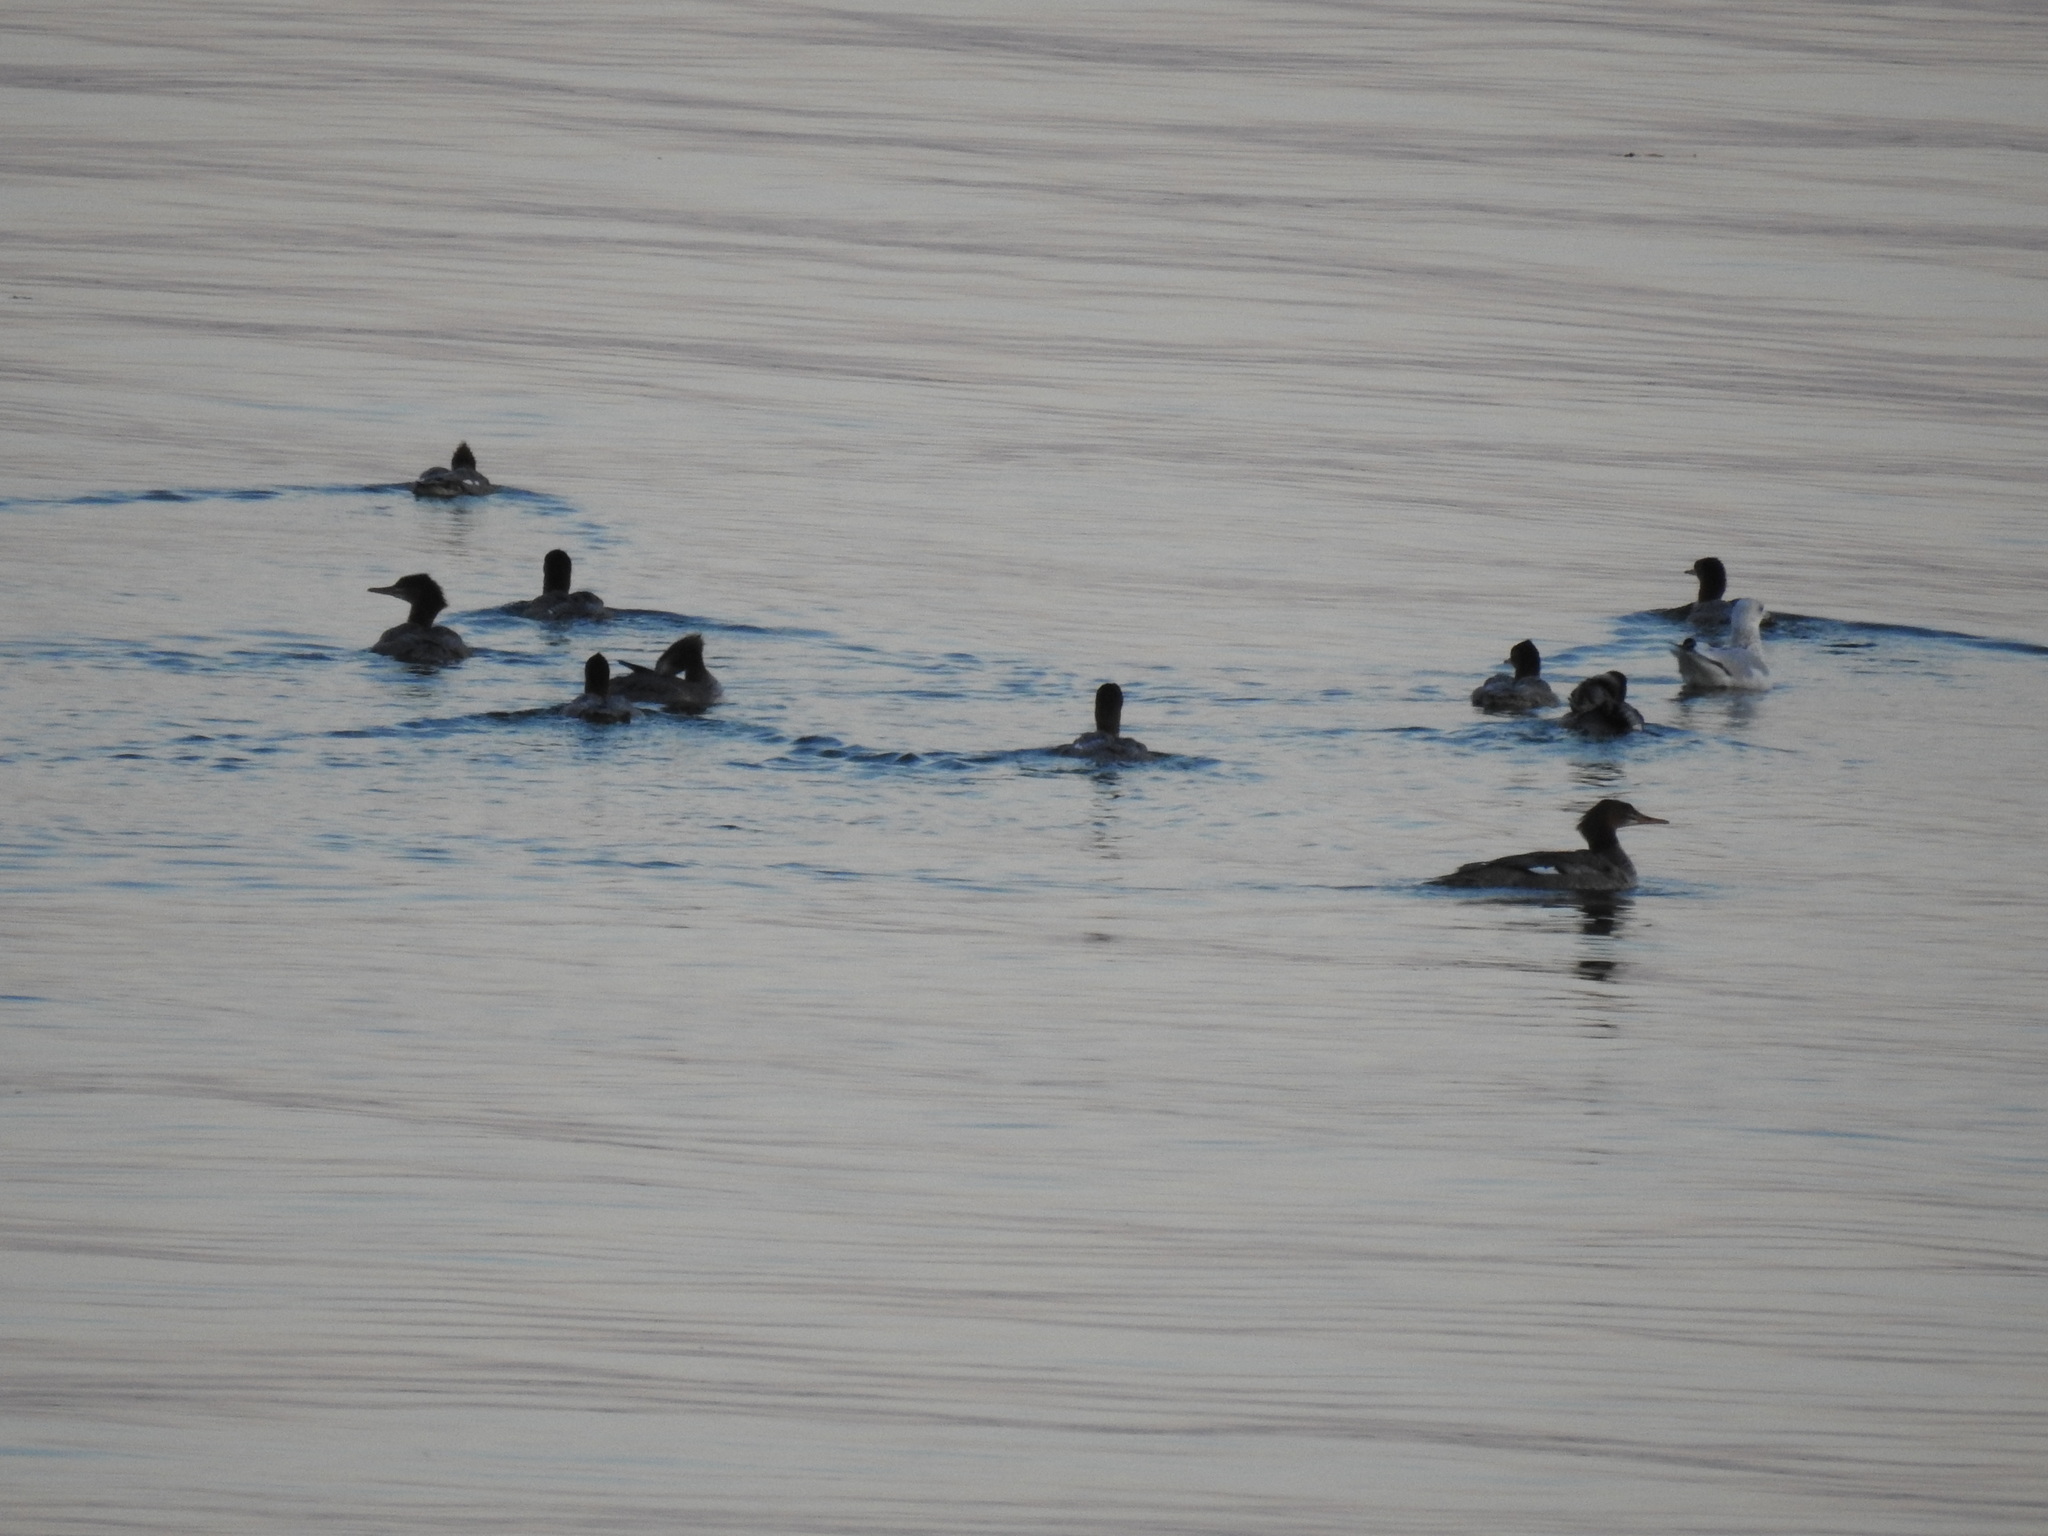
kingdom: Animalia
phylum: Chordata
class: Aves
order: Anseriformes
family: Anatidae
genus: Mergus
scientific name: Mergus merganser
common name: Common merganser
